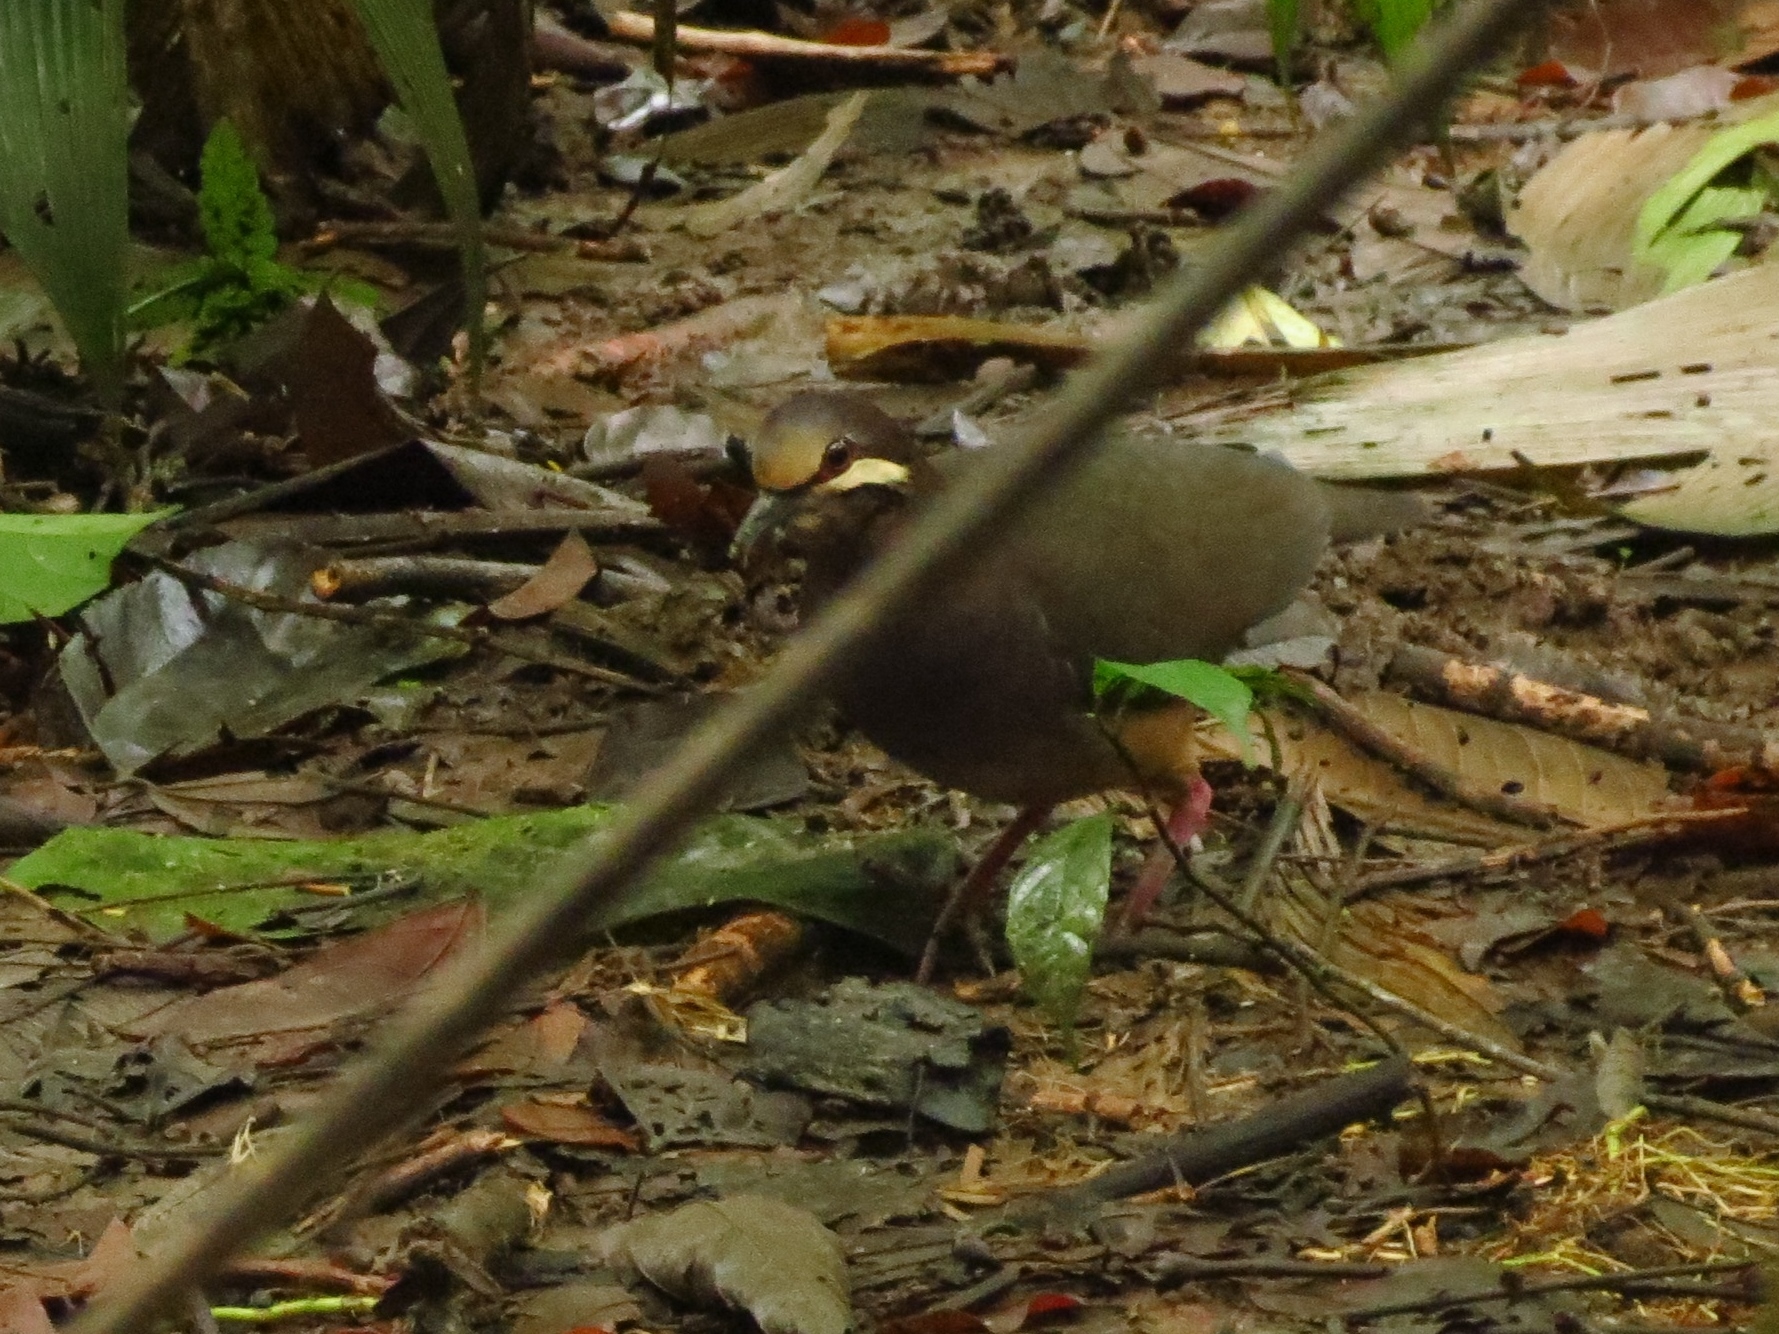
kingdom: Animalia
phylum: Chordata
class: Aves
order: Columbiformes
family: Columbidae
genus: Leptotrygon
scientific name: Leptotrygon veraguensis
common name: Olive-backed quail-dove
